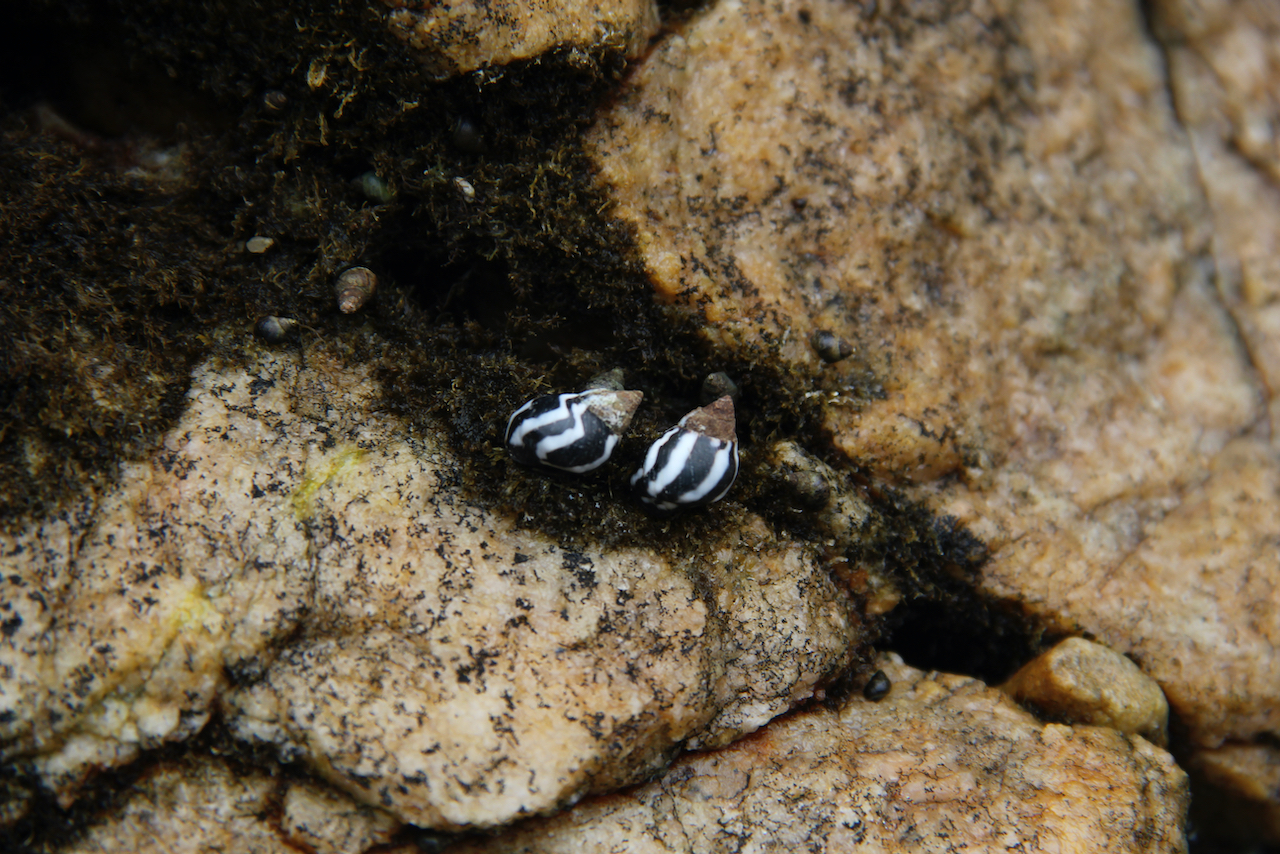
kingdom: Animalia
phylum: Mollusca
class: Gastropoda
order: Littorinimorpha
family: Littorinidae
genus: Echinolittorina
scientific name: Echinolittorina peruviana
